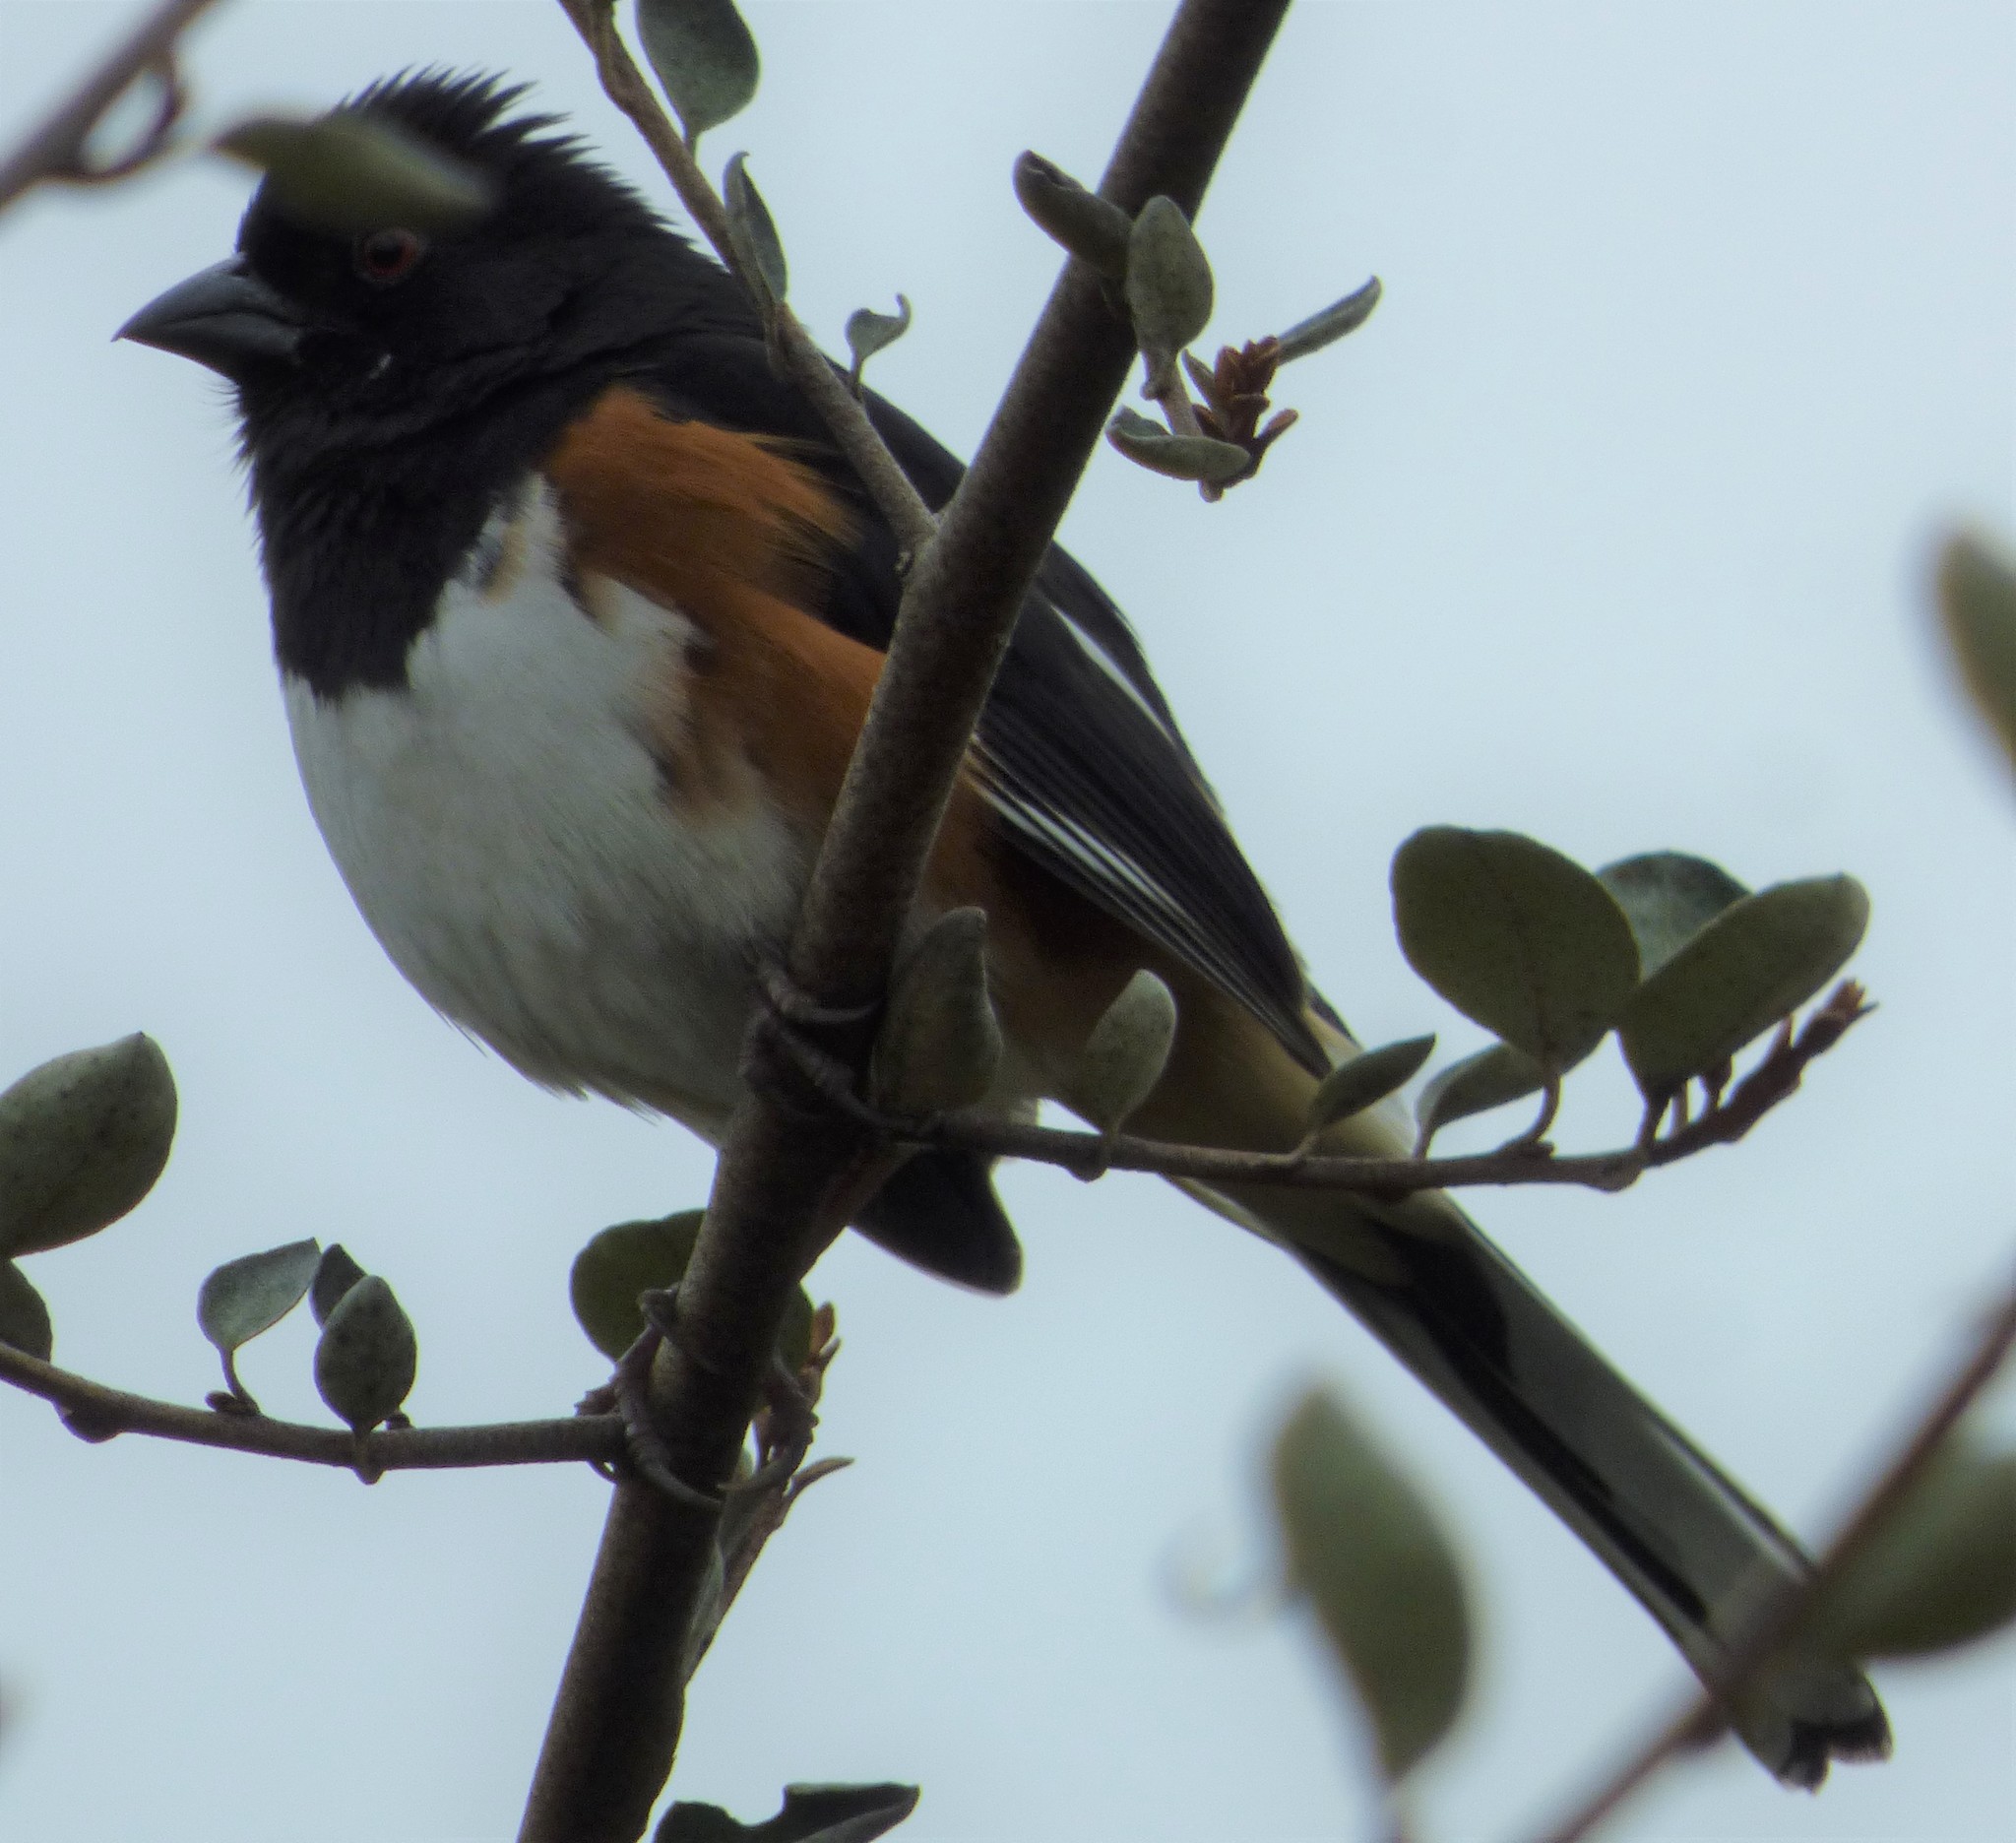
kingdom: Animalia
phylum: Chordata
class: Aves
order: Passeriformes
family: Passerellidae
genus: Pipilo
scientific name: Pipilo erythrophthalmus
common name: Eastern towhee
